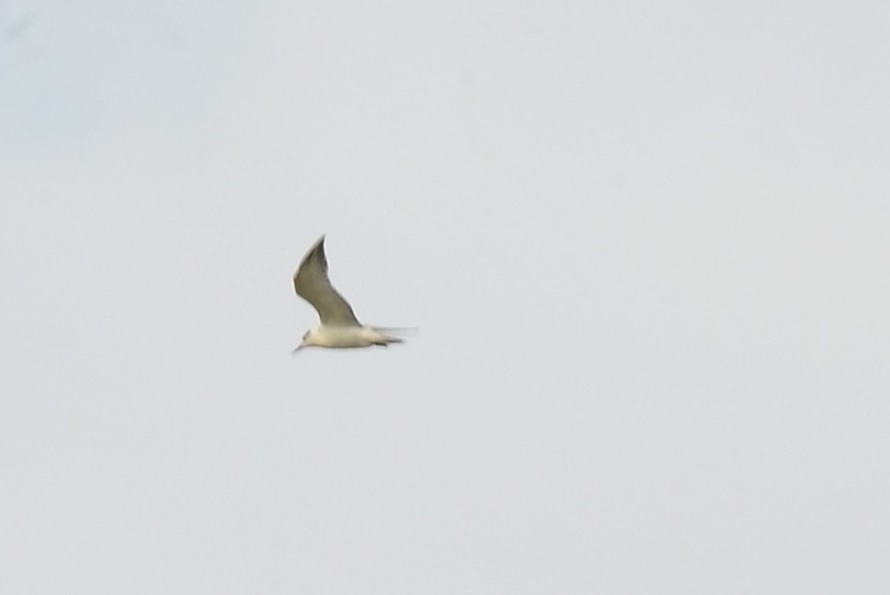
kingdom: Animalia
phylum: Chordata
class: Aves
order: Charadriiformes
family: Laridae
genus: Chlidonias
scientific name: Chlidonias hybrida
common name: Whiskered tern
